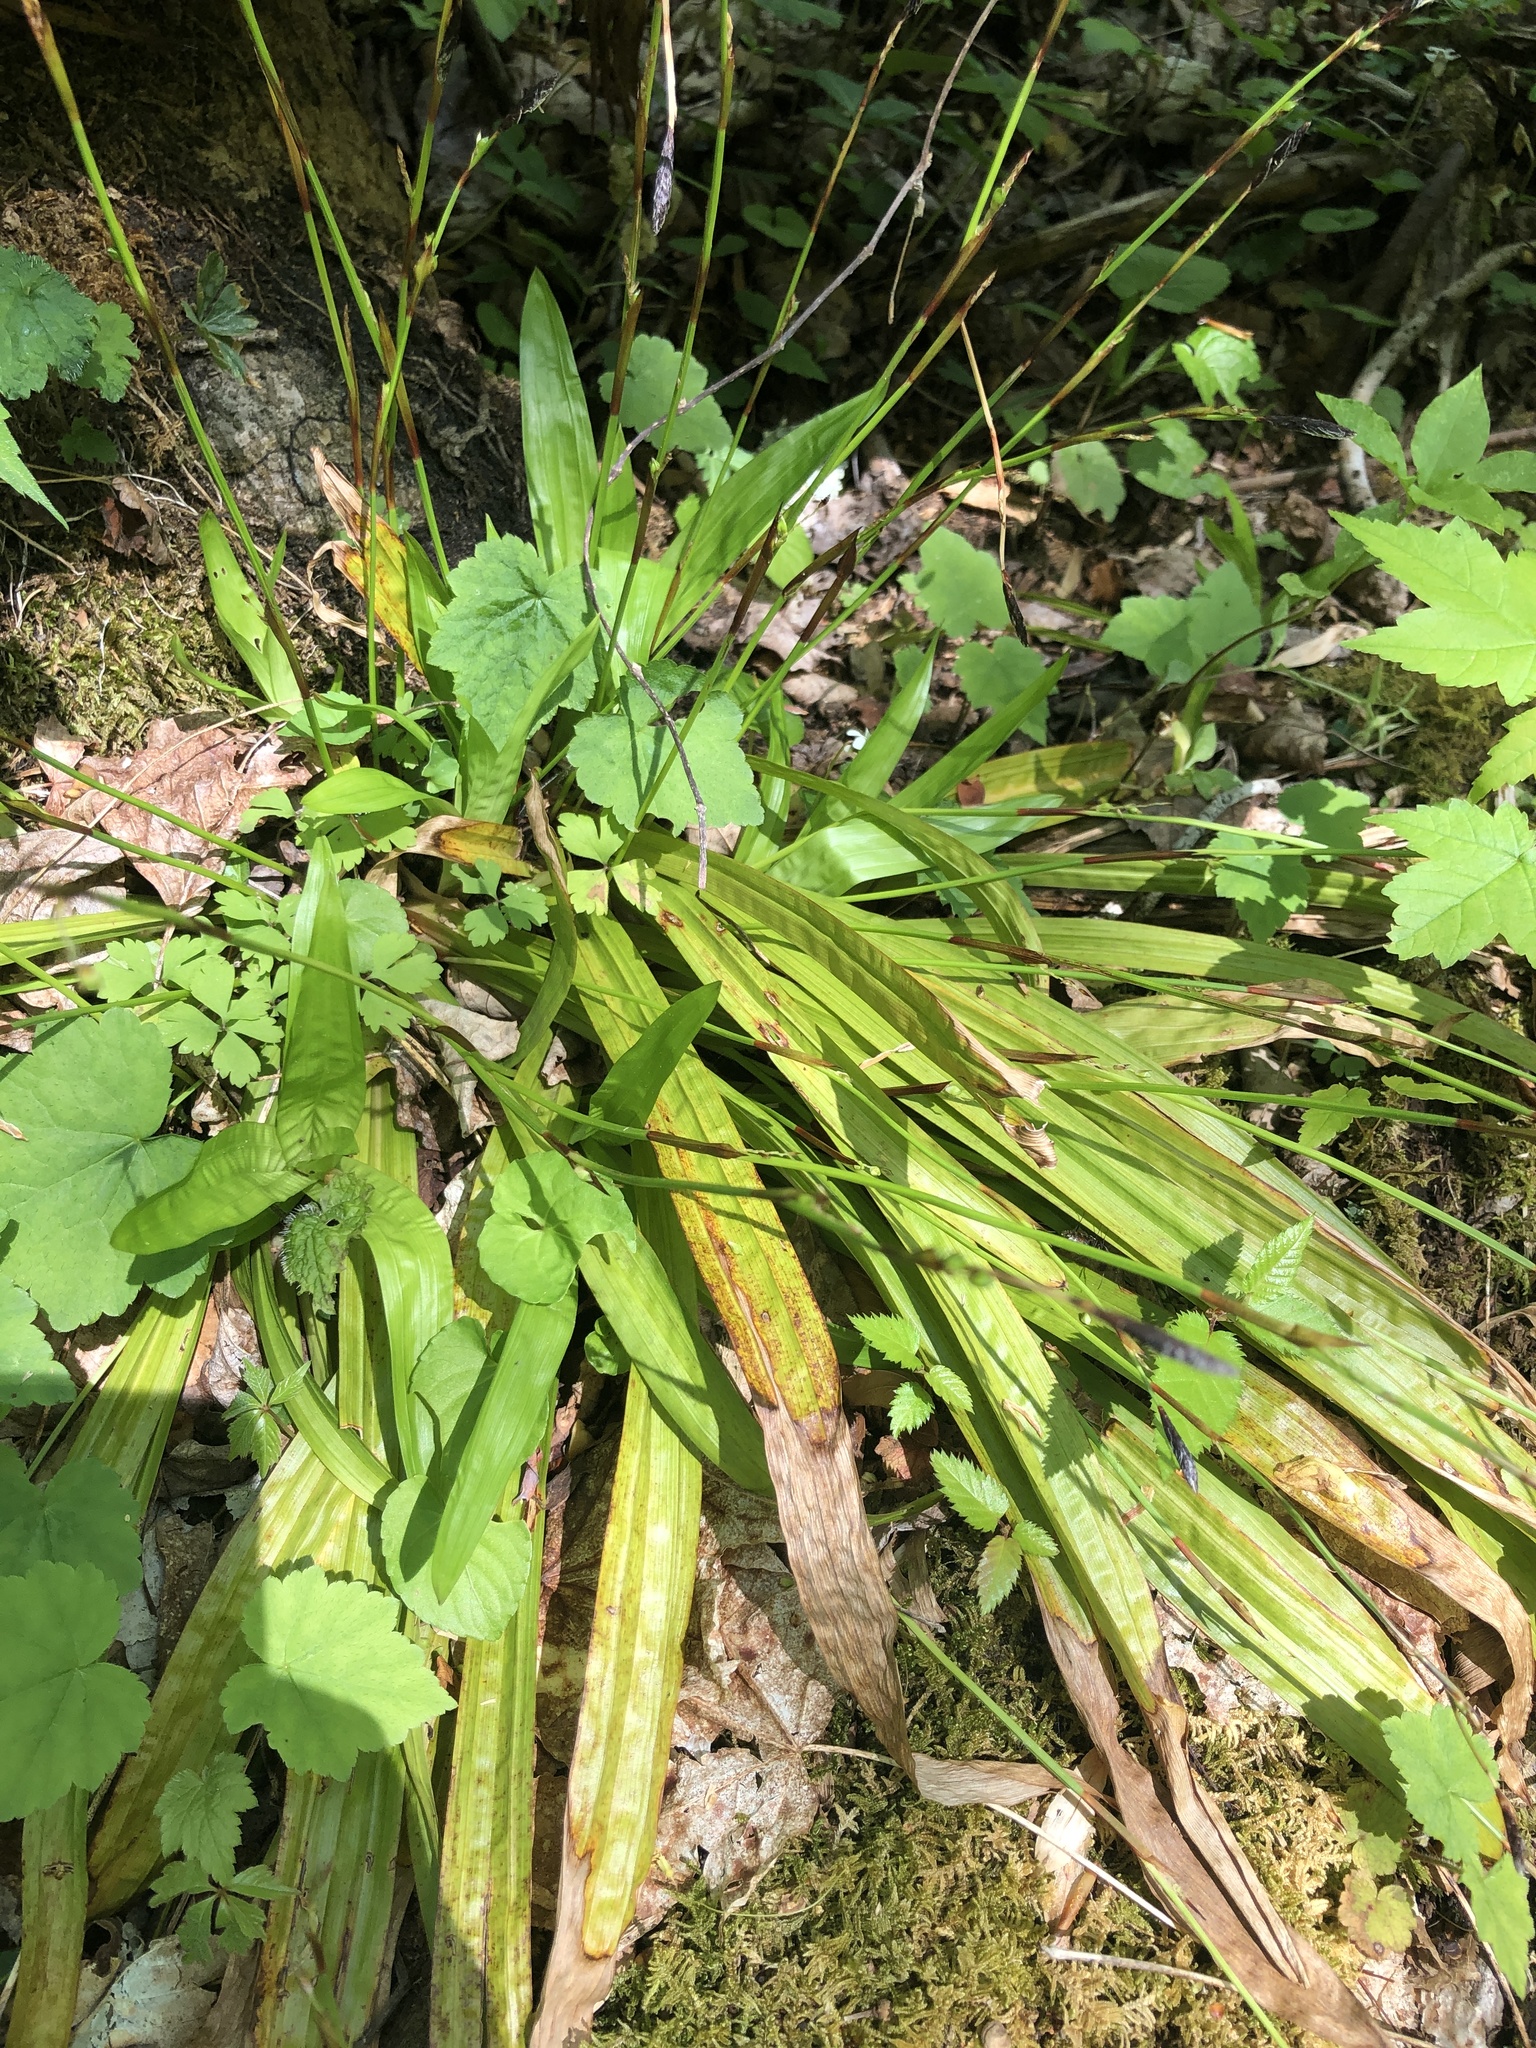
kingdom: Plantae
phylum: Tracheophyta
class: Liliopsida
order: Poales
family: Cyperaceae
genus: Carex
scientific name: Carex plantaginea
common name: Plantain-leaved sedge
